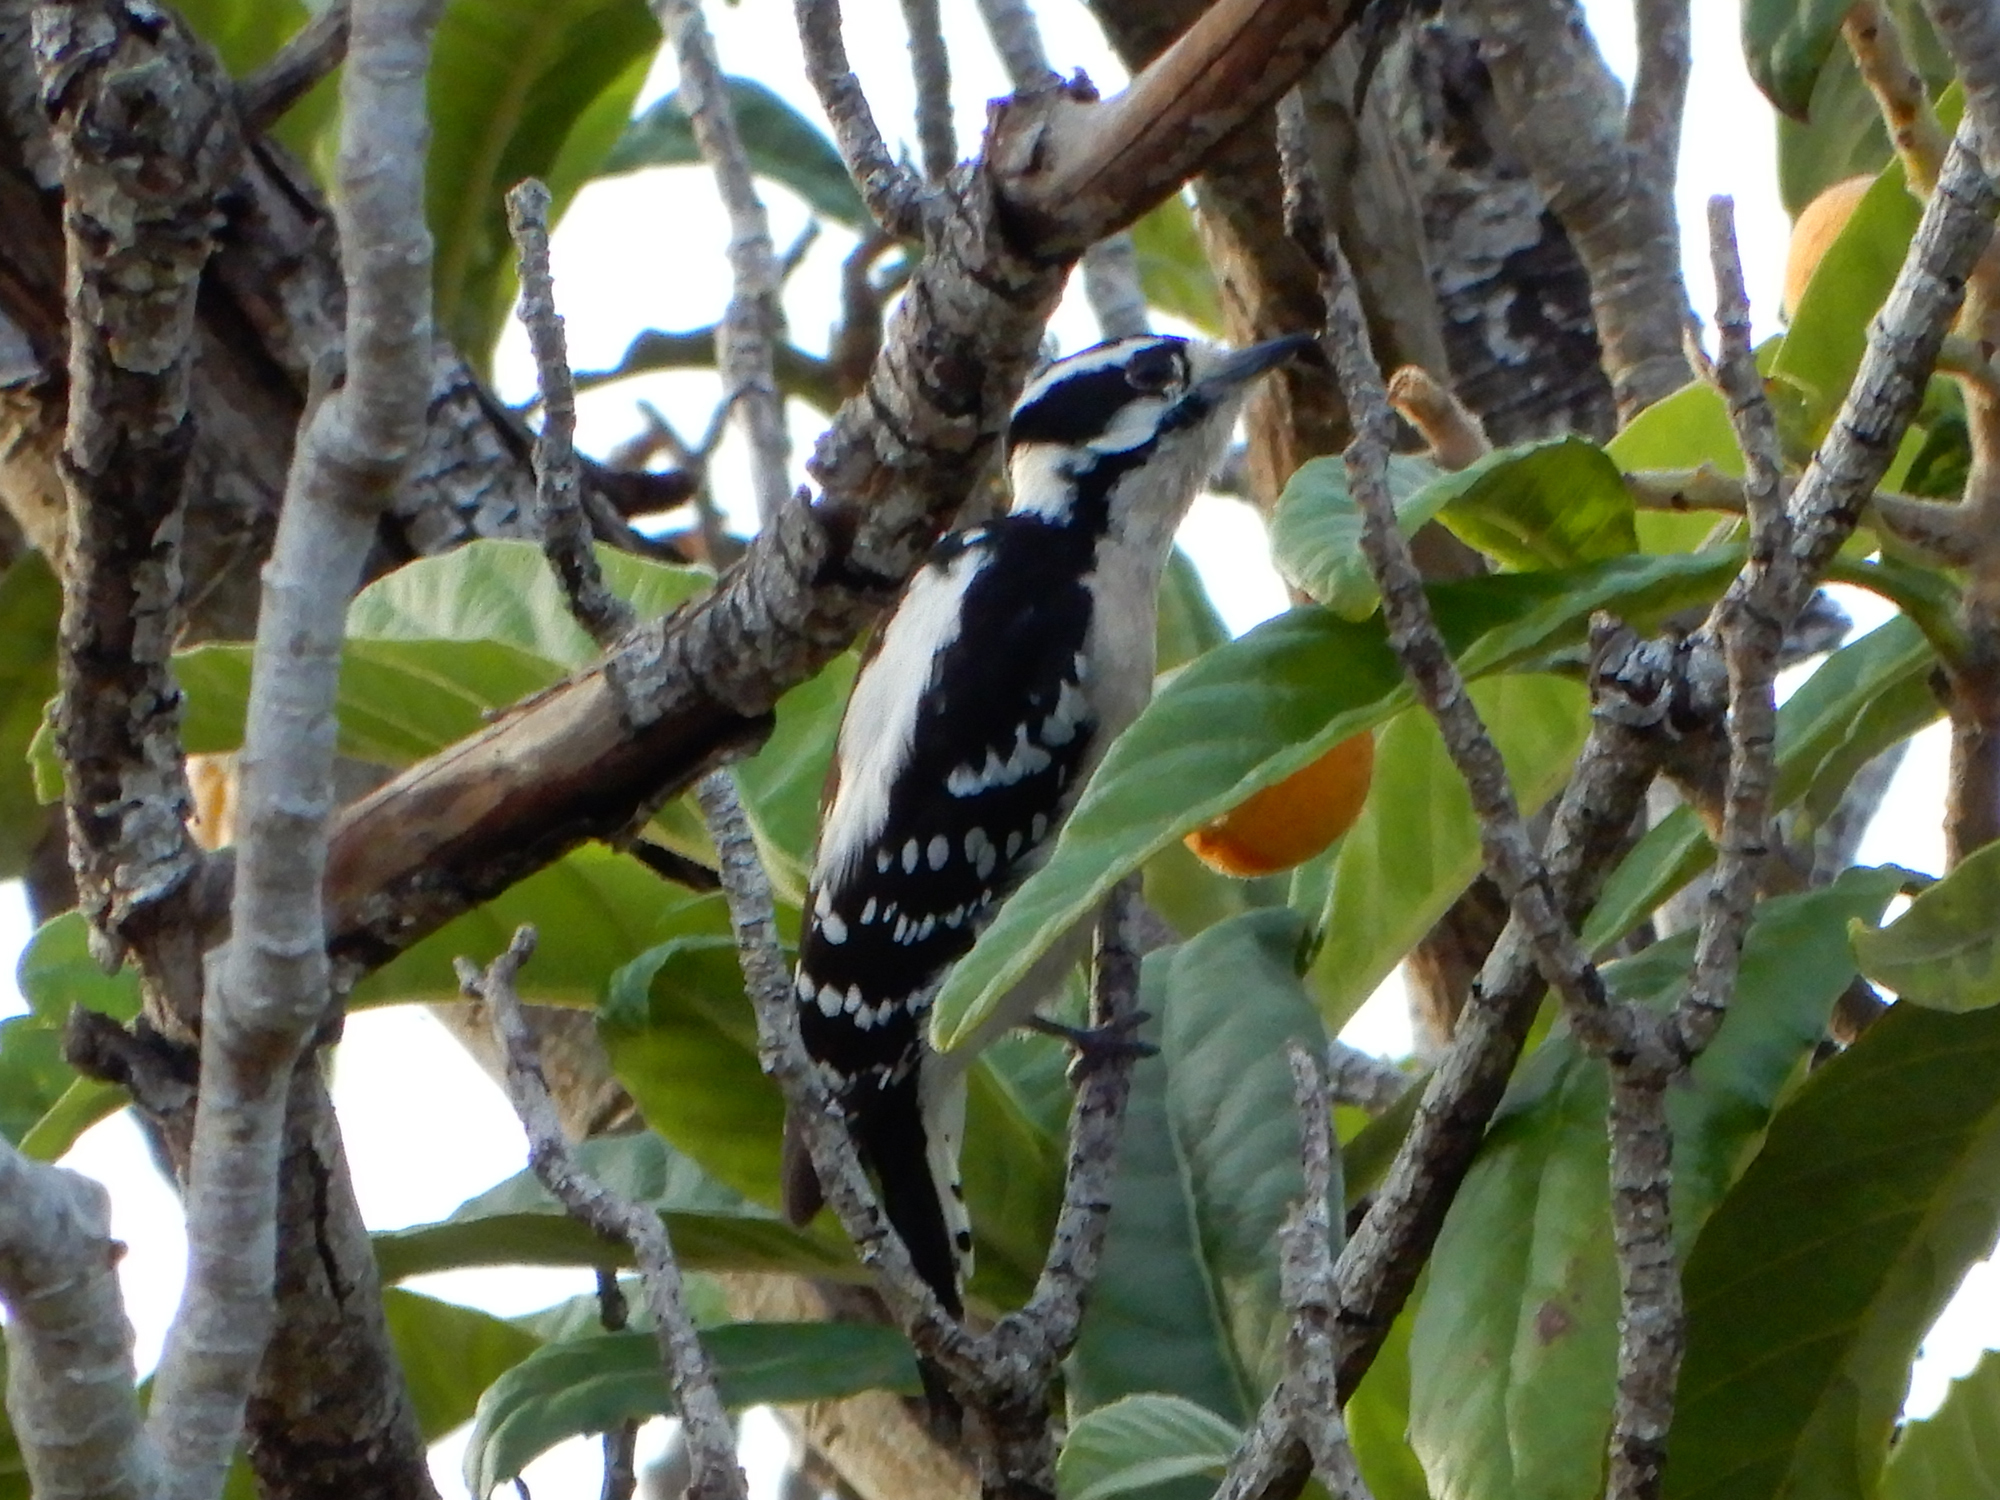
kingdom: Animalia
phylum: Chordata
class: Aves
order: Piciformes
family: Picidae
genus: Dryobates
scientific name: Dryobates pubescens
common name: Downy woodpecker
